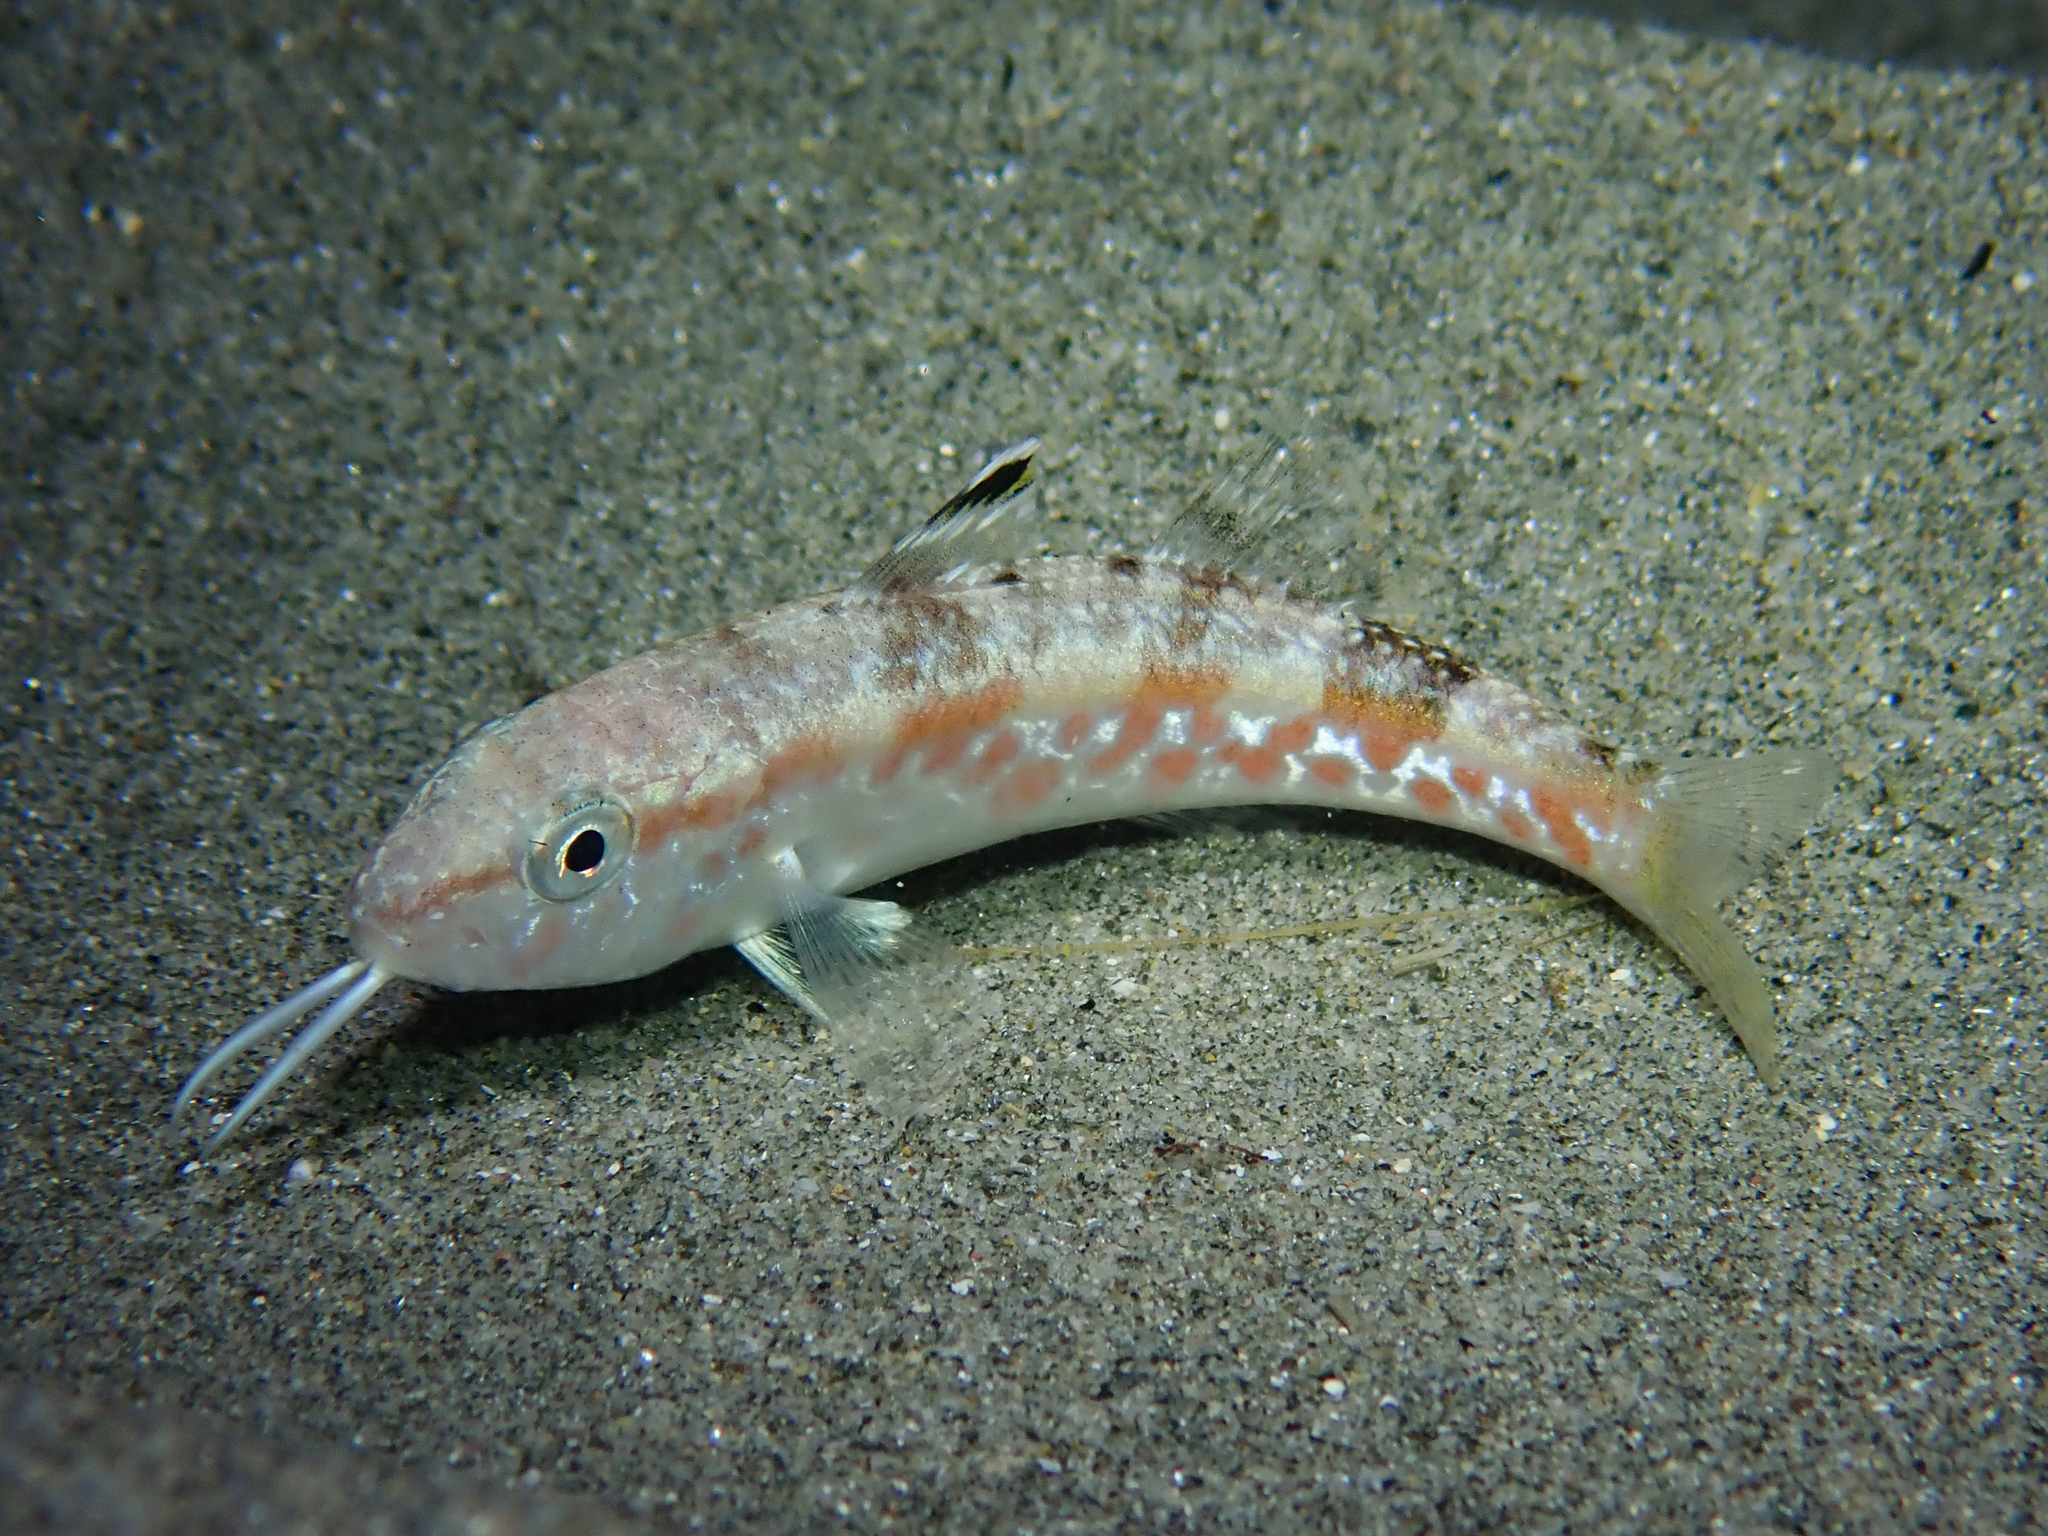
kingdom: Animalia
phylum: Chordata
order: Perciformes
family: Mullidae
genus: Mullus
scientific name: Mullus surmuletus
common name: Red mullet
